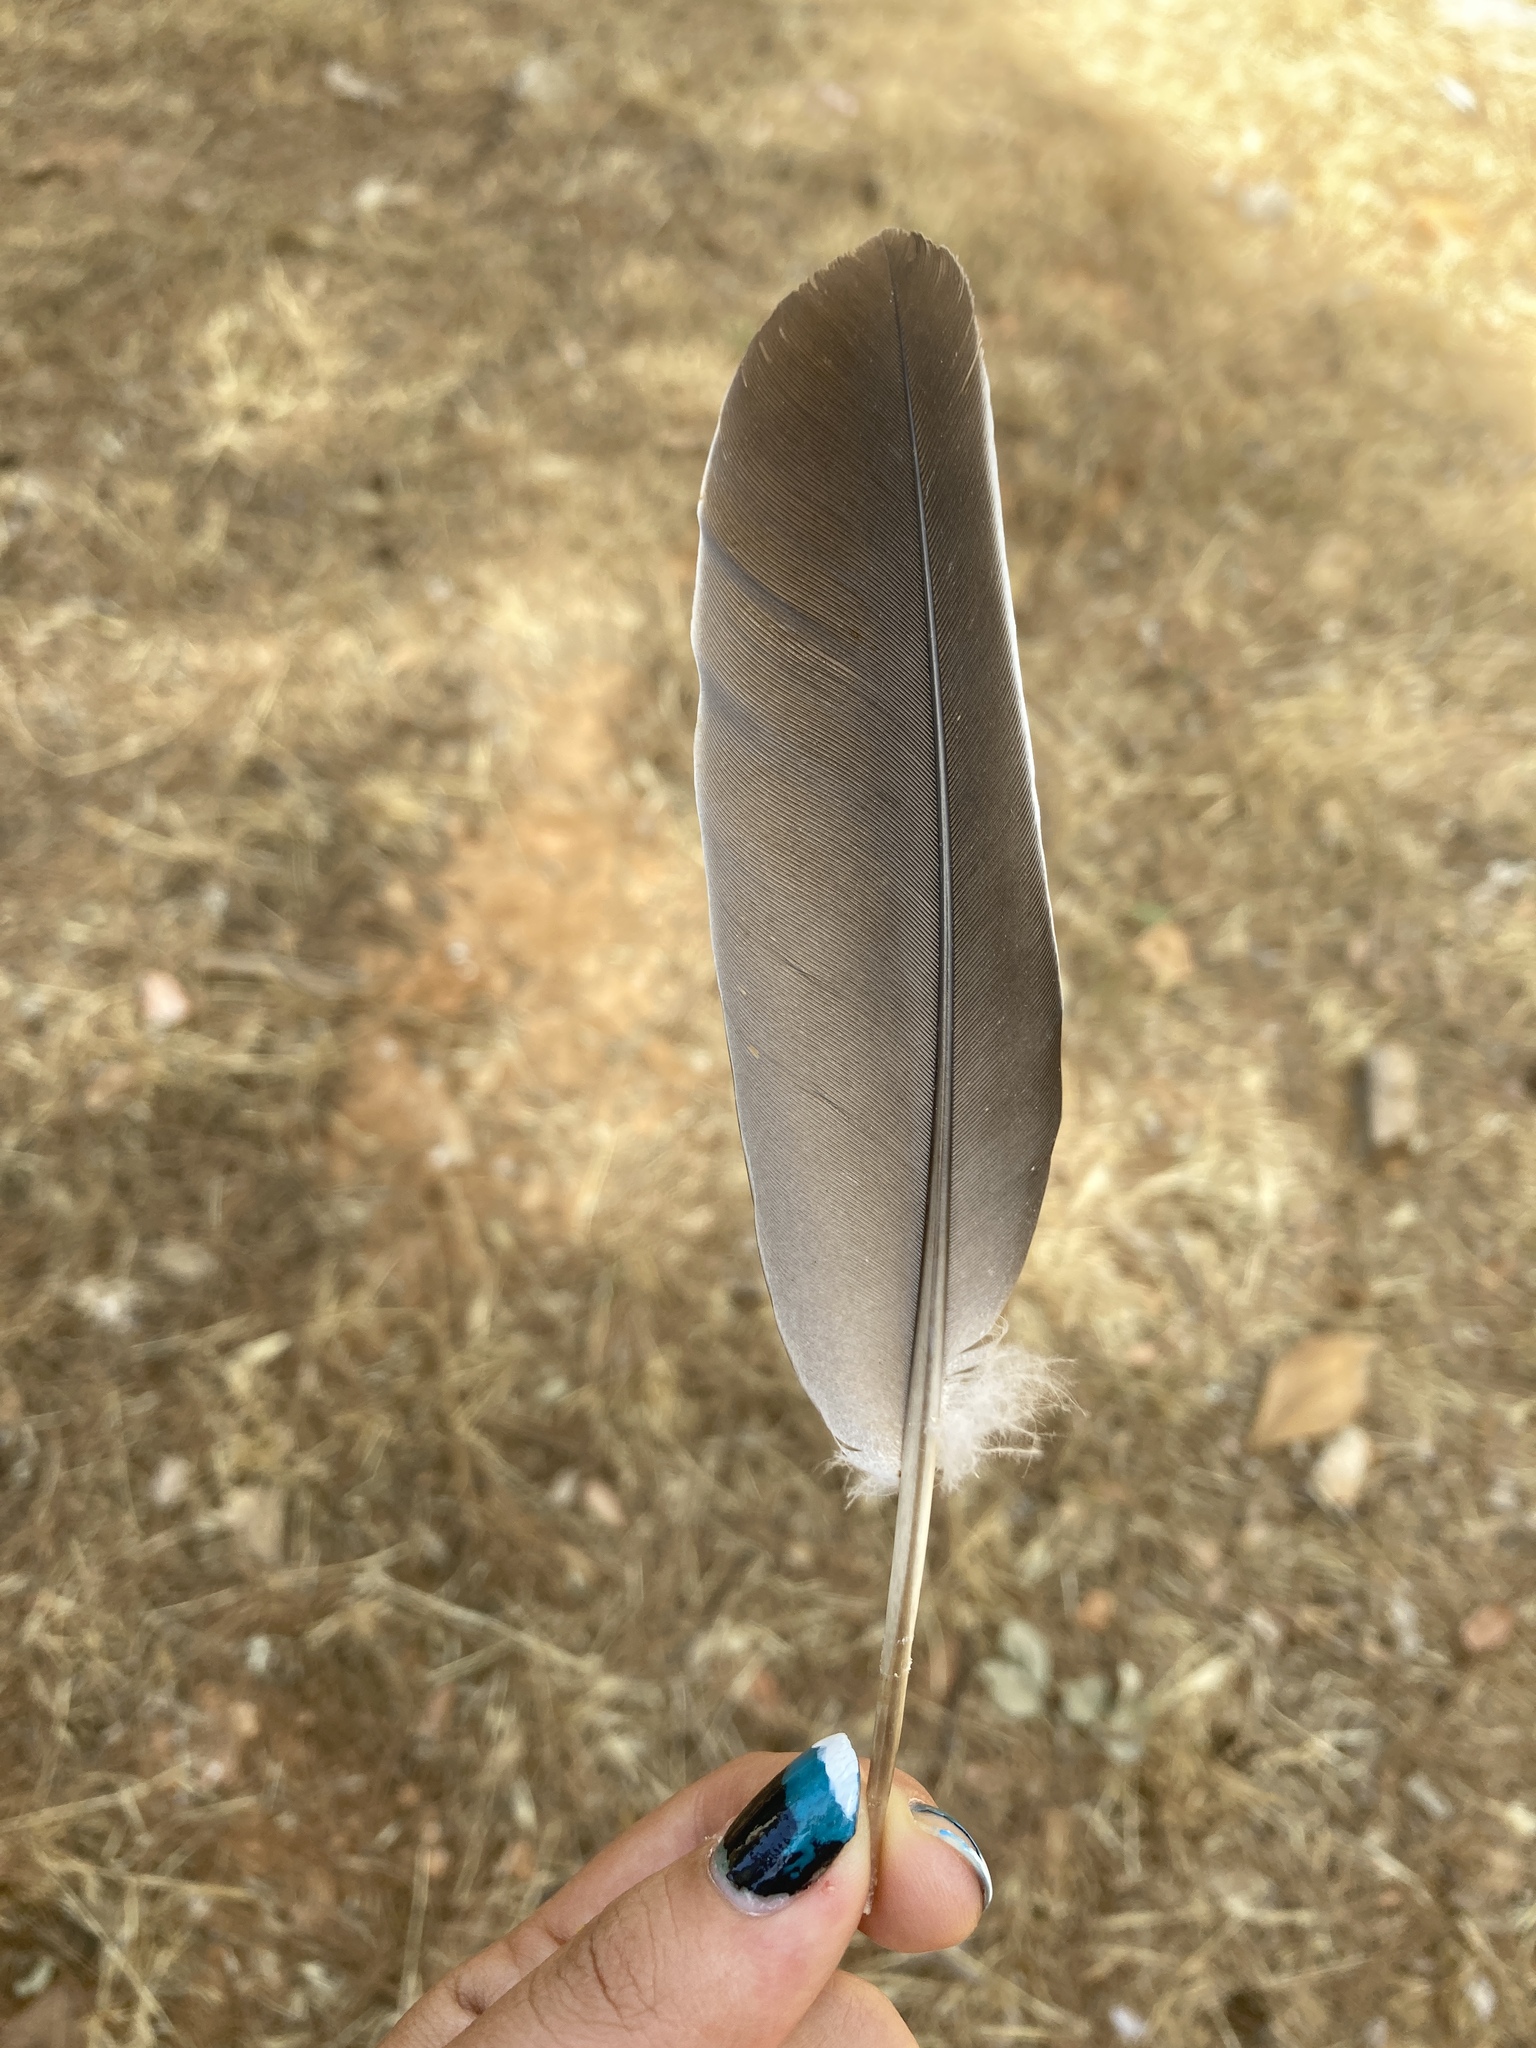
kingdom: Animalia
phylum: Chordata
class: Aves
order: Columbiformes
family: Columbidae
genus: Columba
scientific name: Columba palumbus
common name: Common wood pigeon
